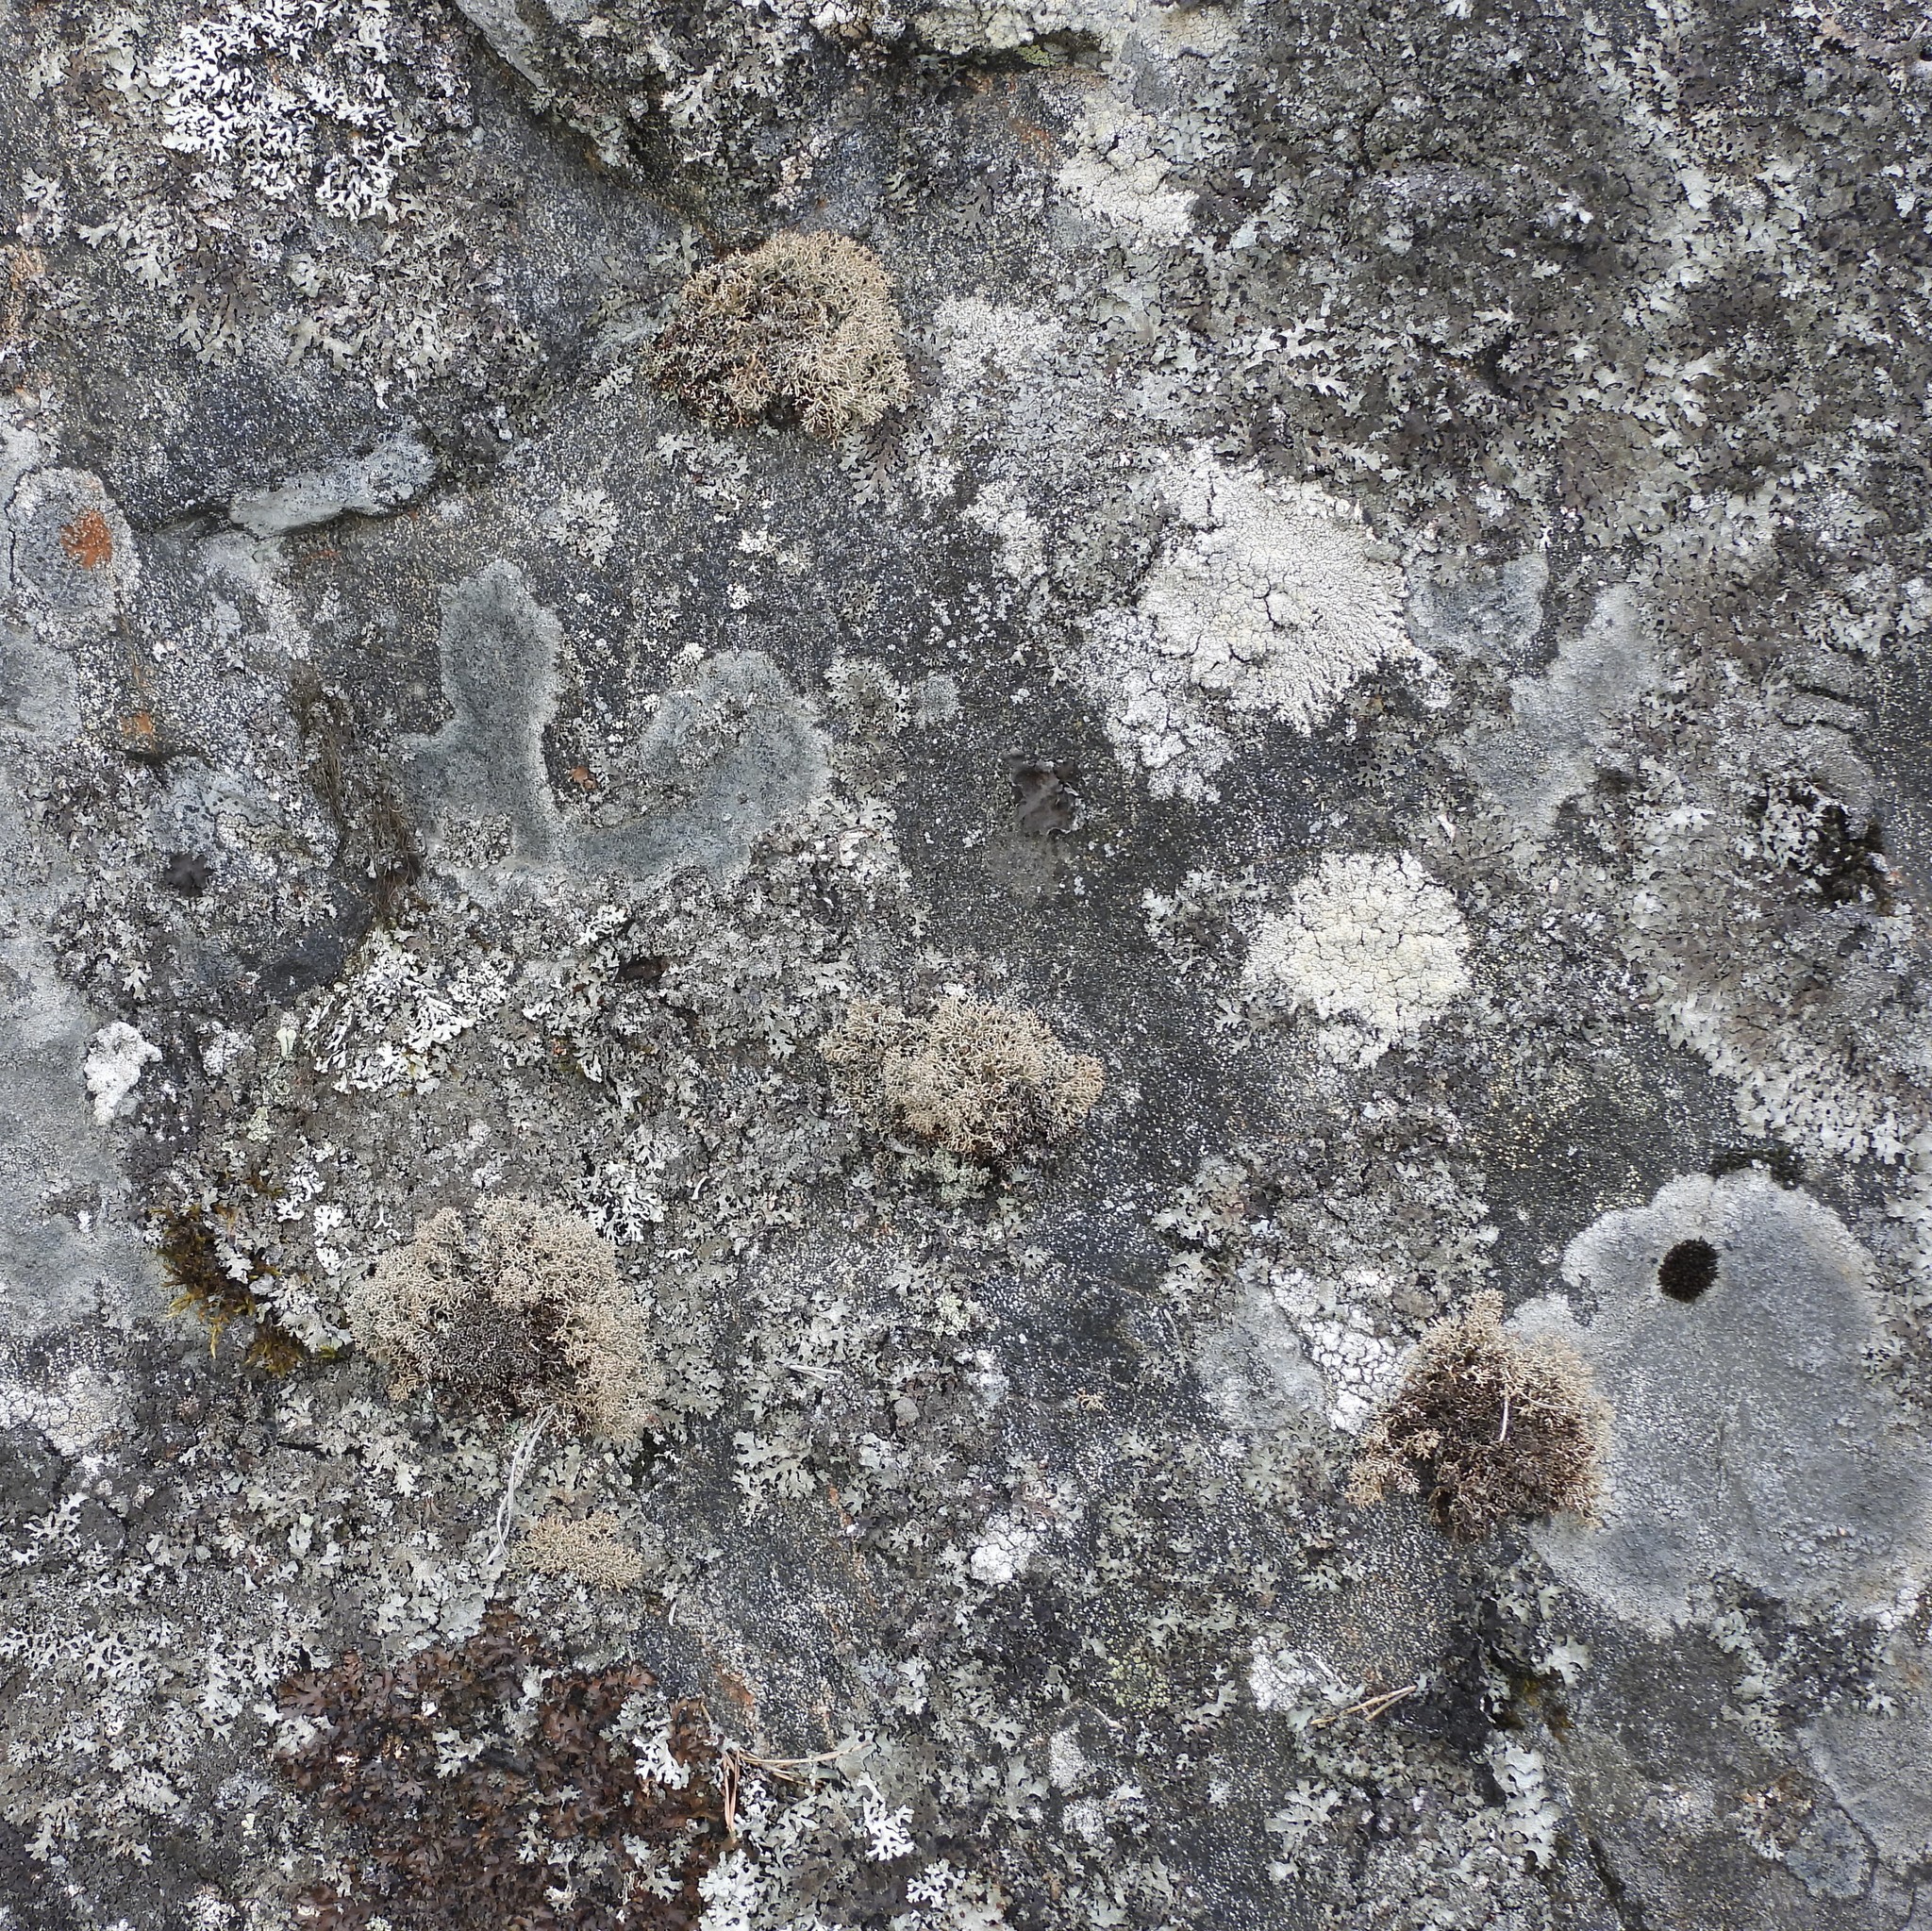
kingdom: Fungi
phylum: Ascomycota
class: Lecanoromycetes
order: Lecanorales
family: Sphaerophoraceae
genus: Sphaerophorus
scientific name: Sphaerophorus fragilis
